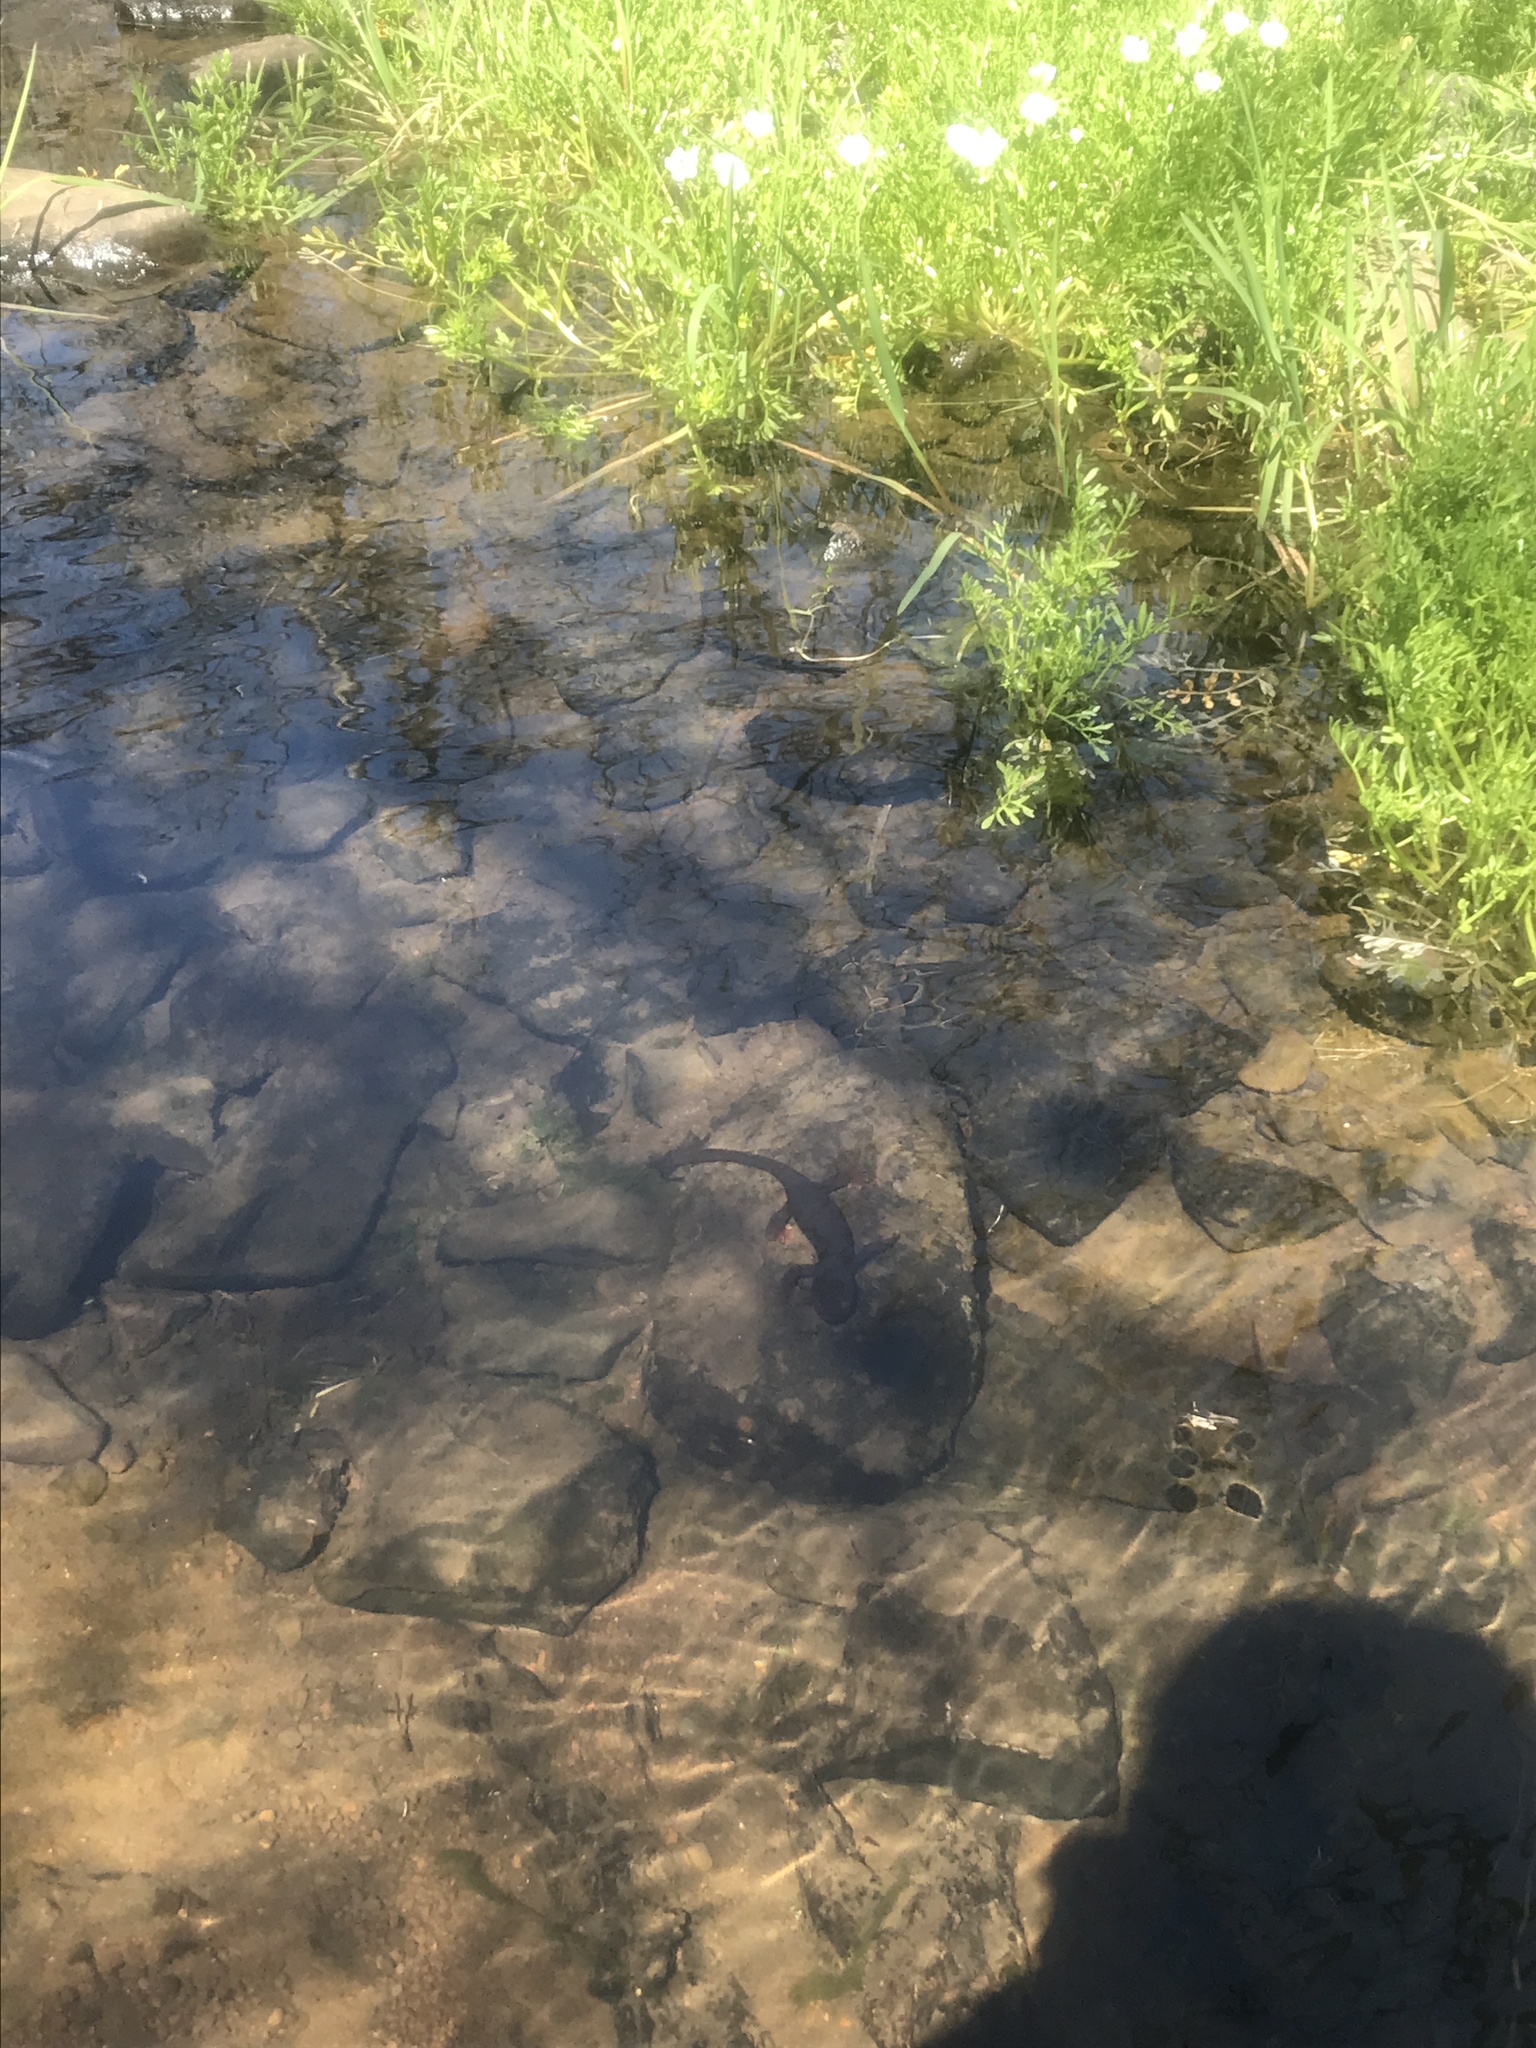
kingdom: Animalia
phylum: Chordata
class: Amphibia
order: Caudata
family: Salamandridae
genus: Taricha
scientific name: Taricha sierrae
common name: Sierra newt
